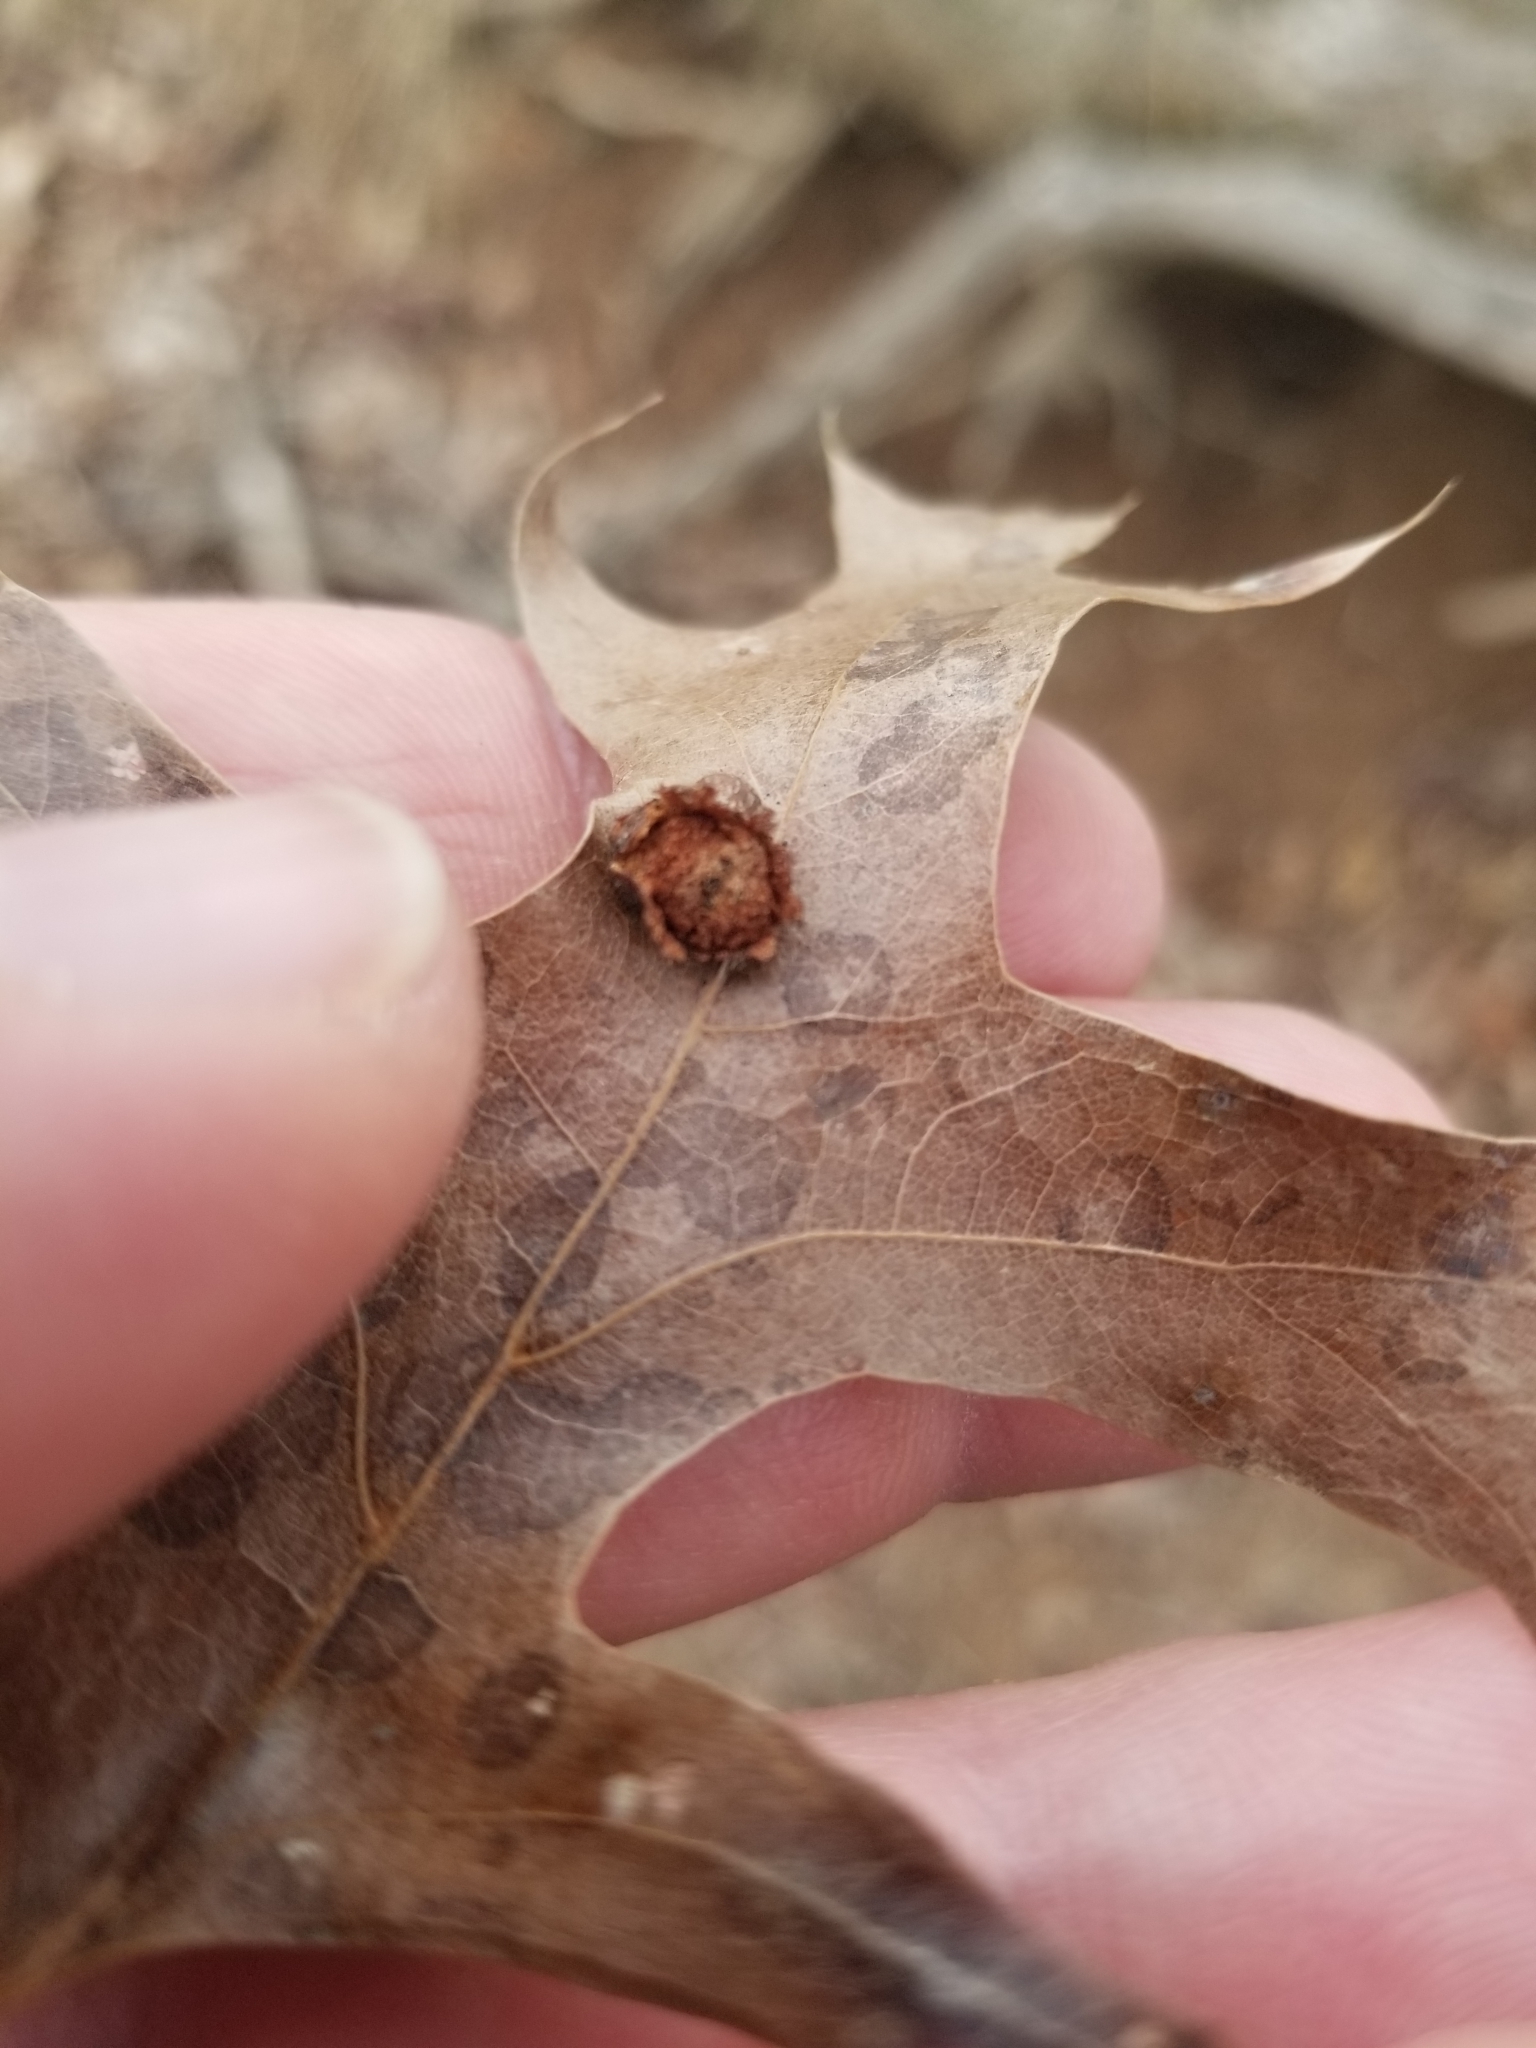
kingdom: Animalia
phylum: Arthropoda
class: Insecta
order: Diptera
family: Cecidomyiidae
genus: Polystepha
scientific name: Polystepha pilulae
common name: Oak leaf gall midge
